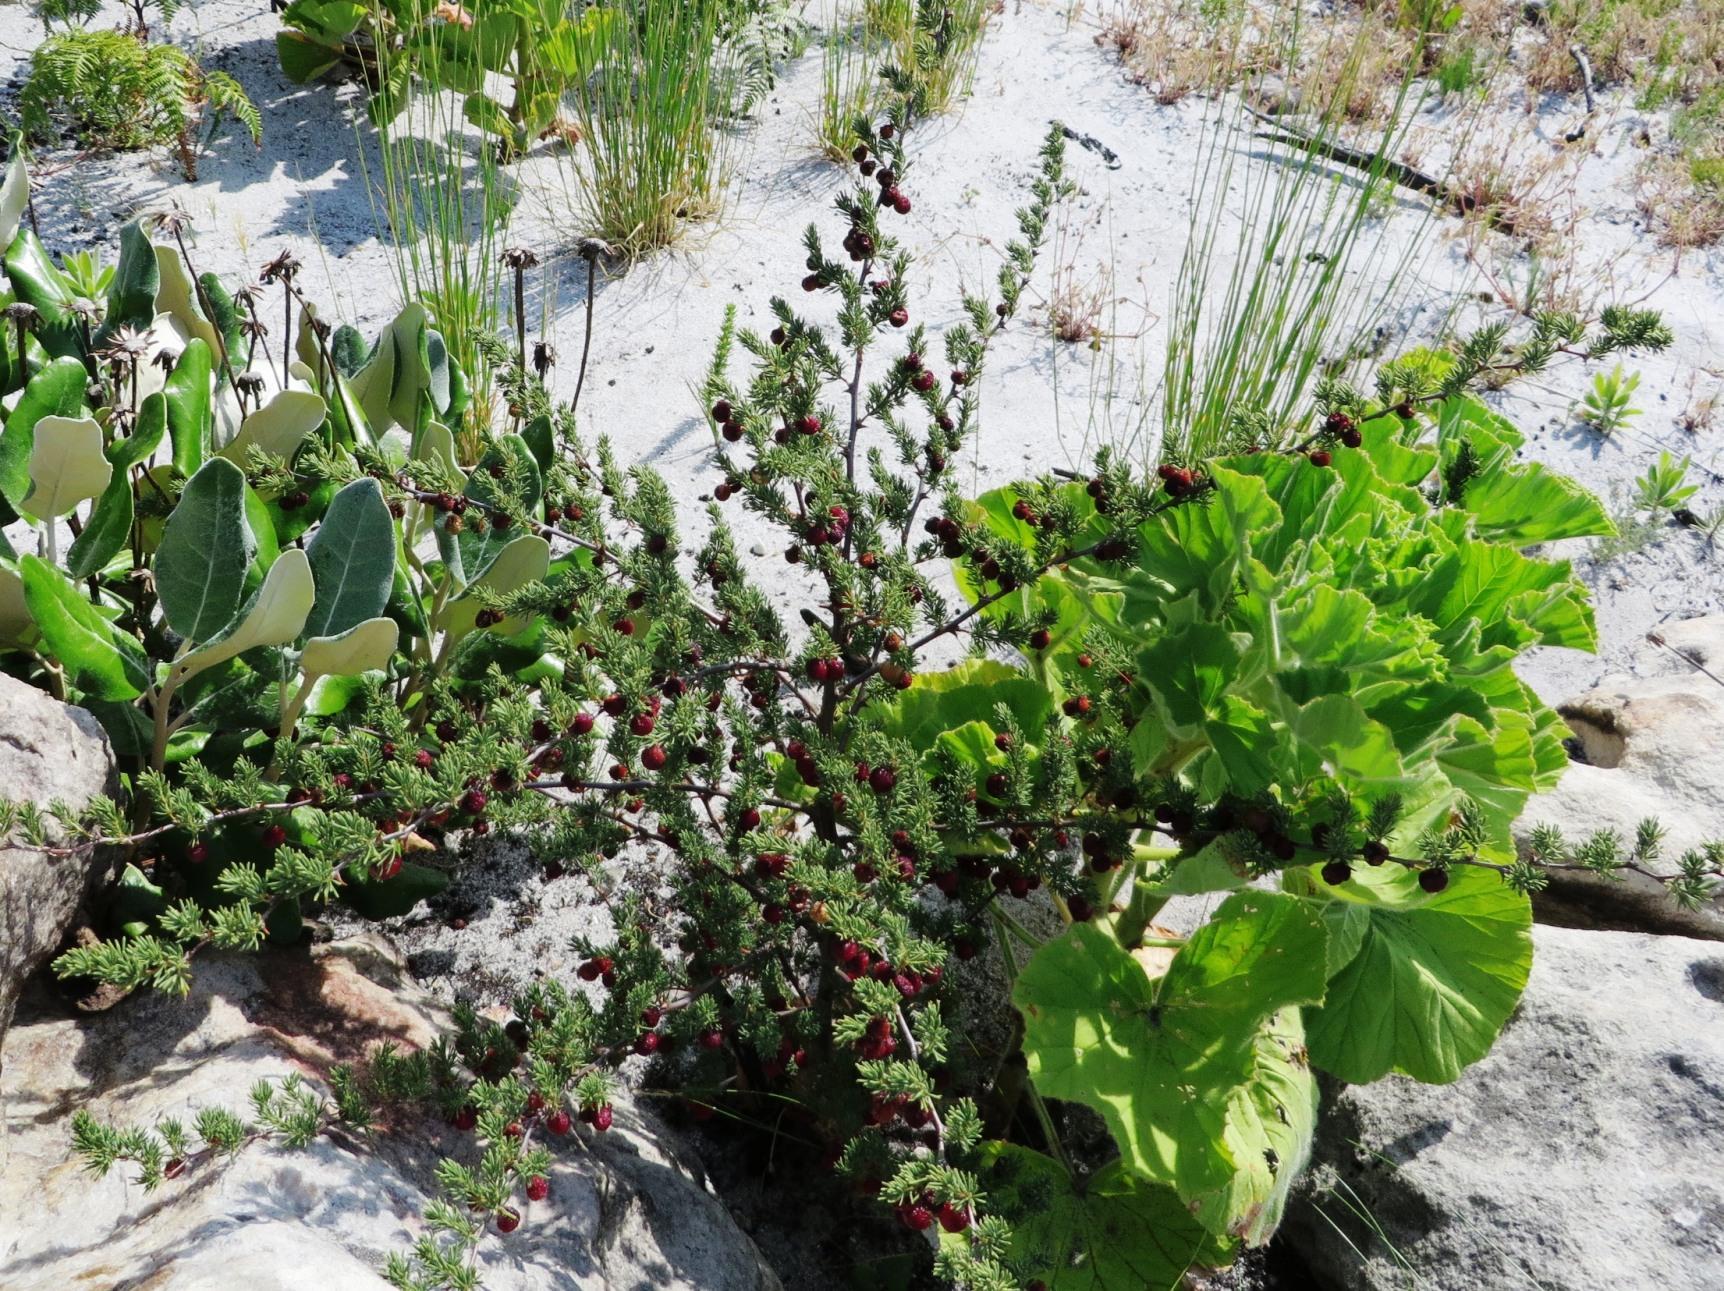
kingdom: Plantae
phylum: Tracheophyta
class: Liliopsida
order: Asparagales
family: Asparagaceae
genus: Asparagus
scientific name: Asparagus rubicundus
